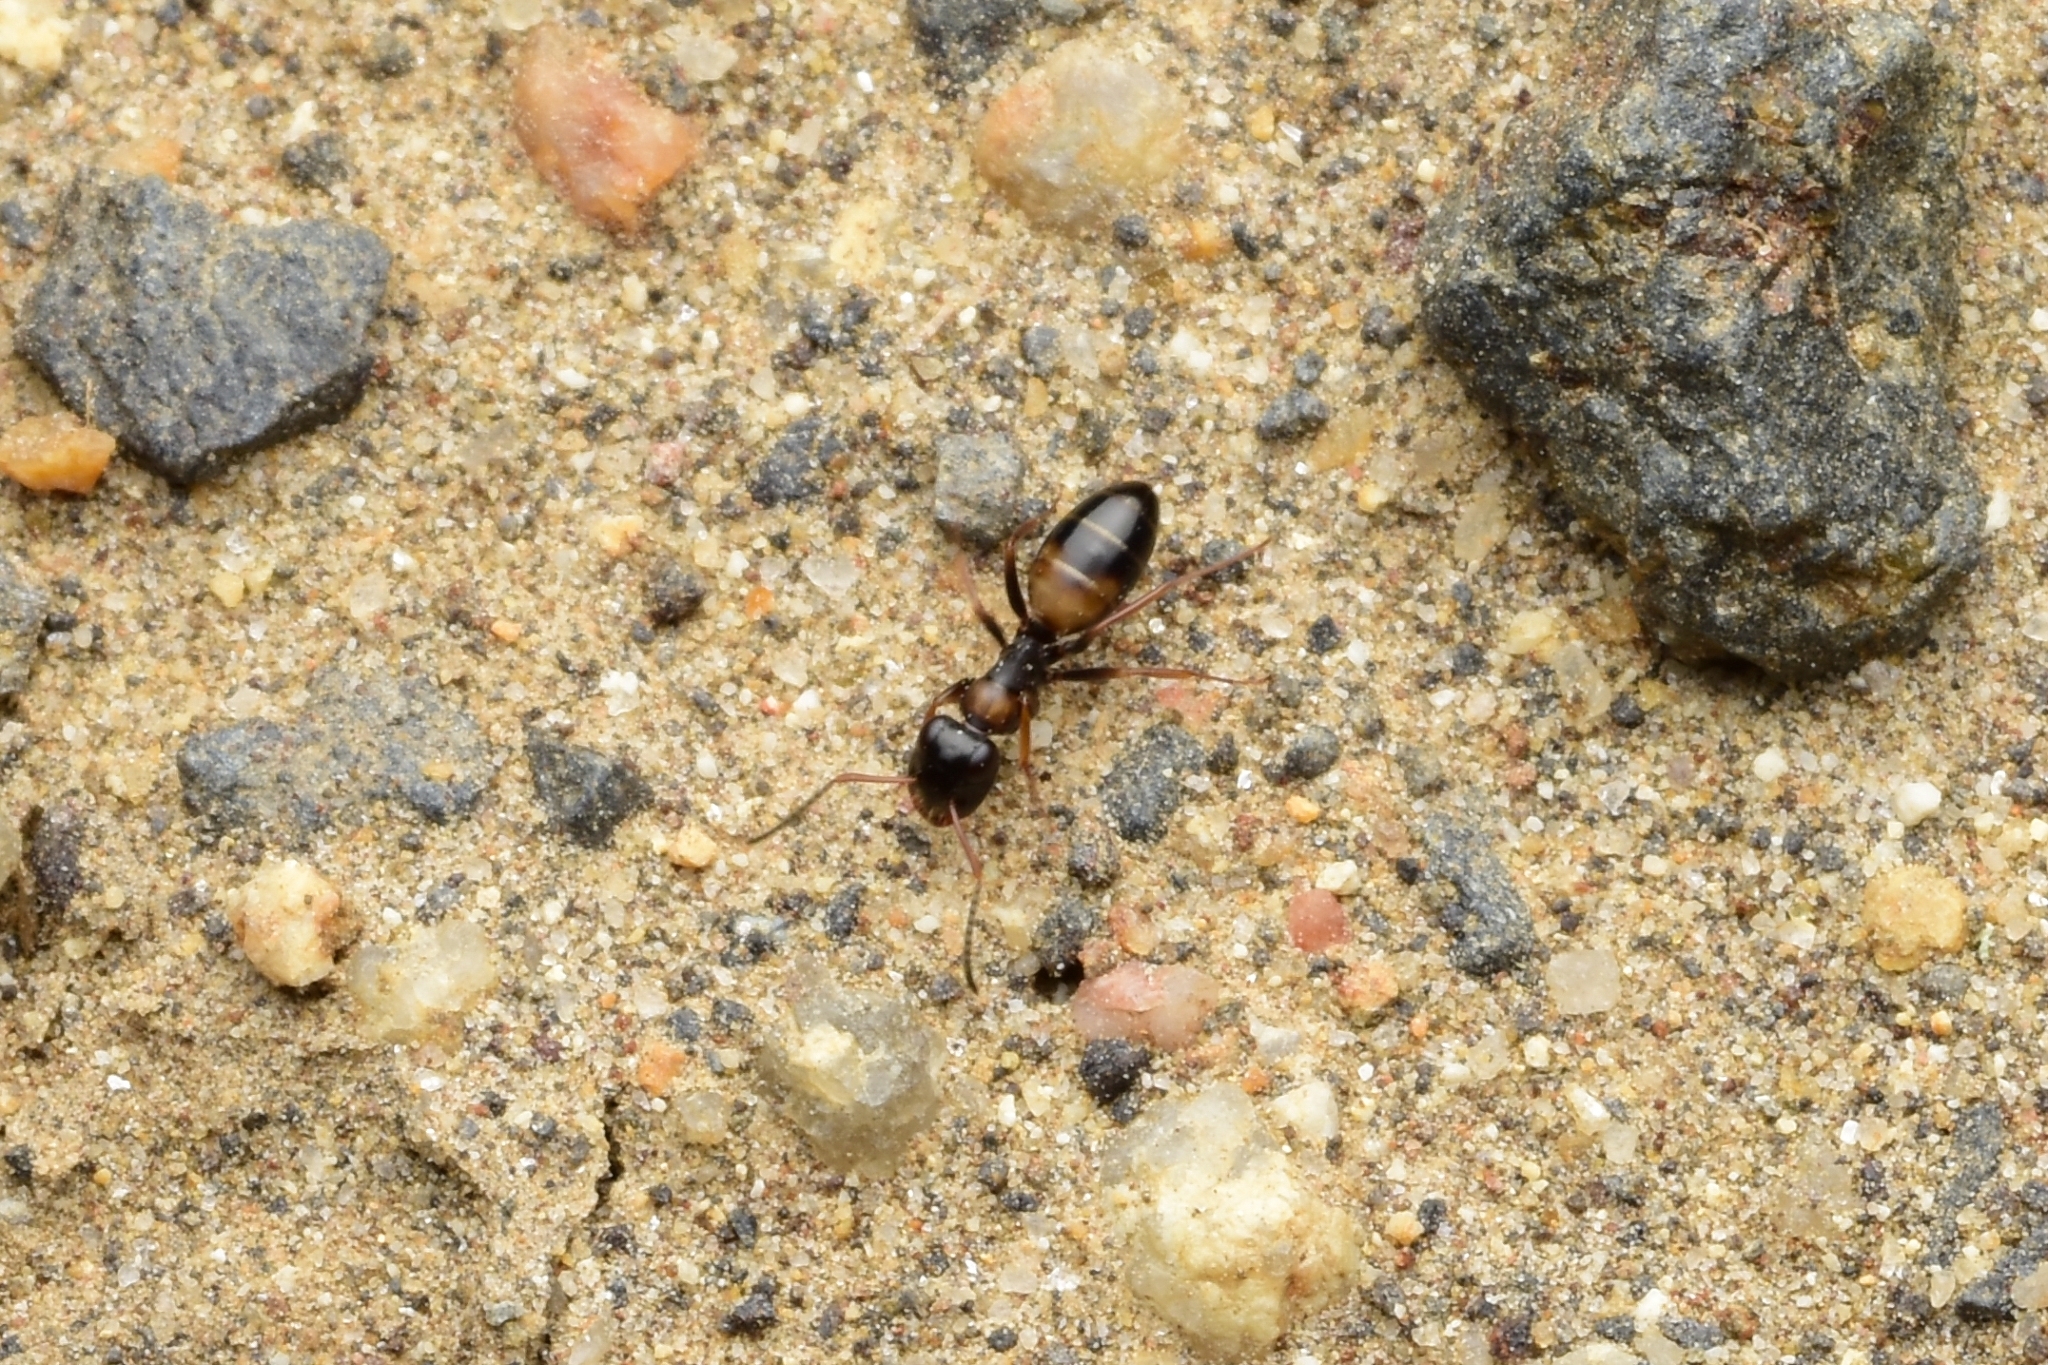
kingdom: Animalia
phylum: Arthropoda
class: Insecta
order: Hymenoptera
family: Formicidae
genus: Opisthopsis
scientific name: Opisthopsis respiciens
